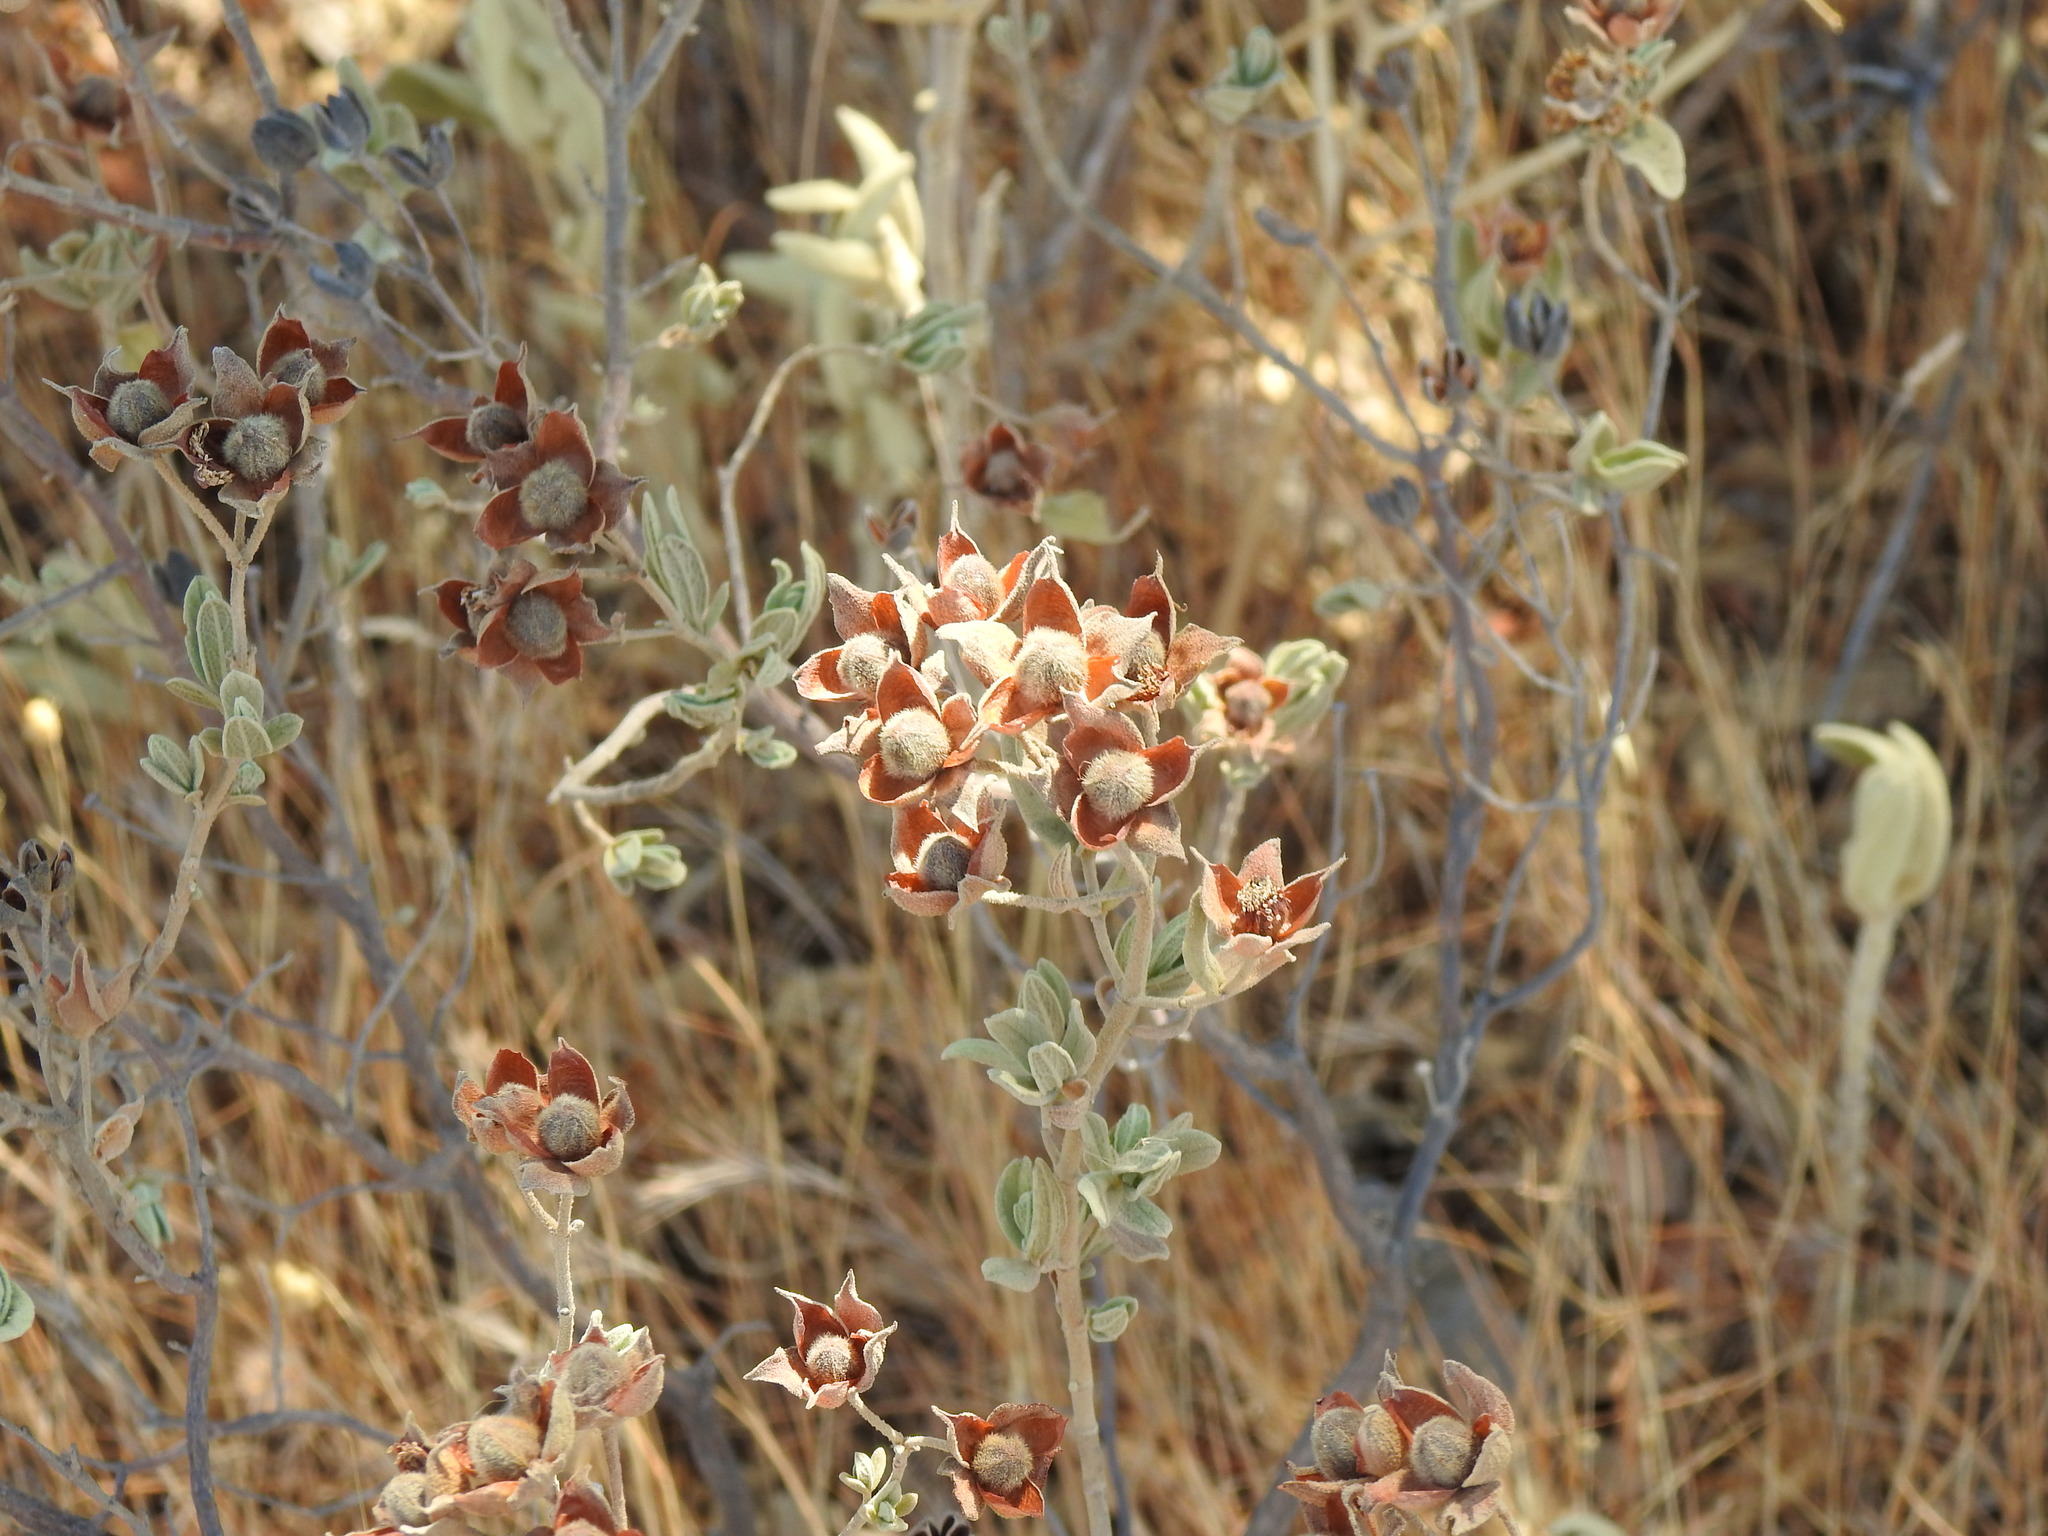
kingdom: Plantae
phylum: Tracheophyta
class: Magnoliopsida
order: Malvales
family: Cistaceae
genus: Cistus
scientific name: Cistus albidus
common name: White-leaf rock-rose
